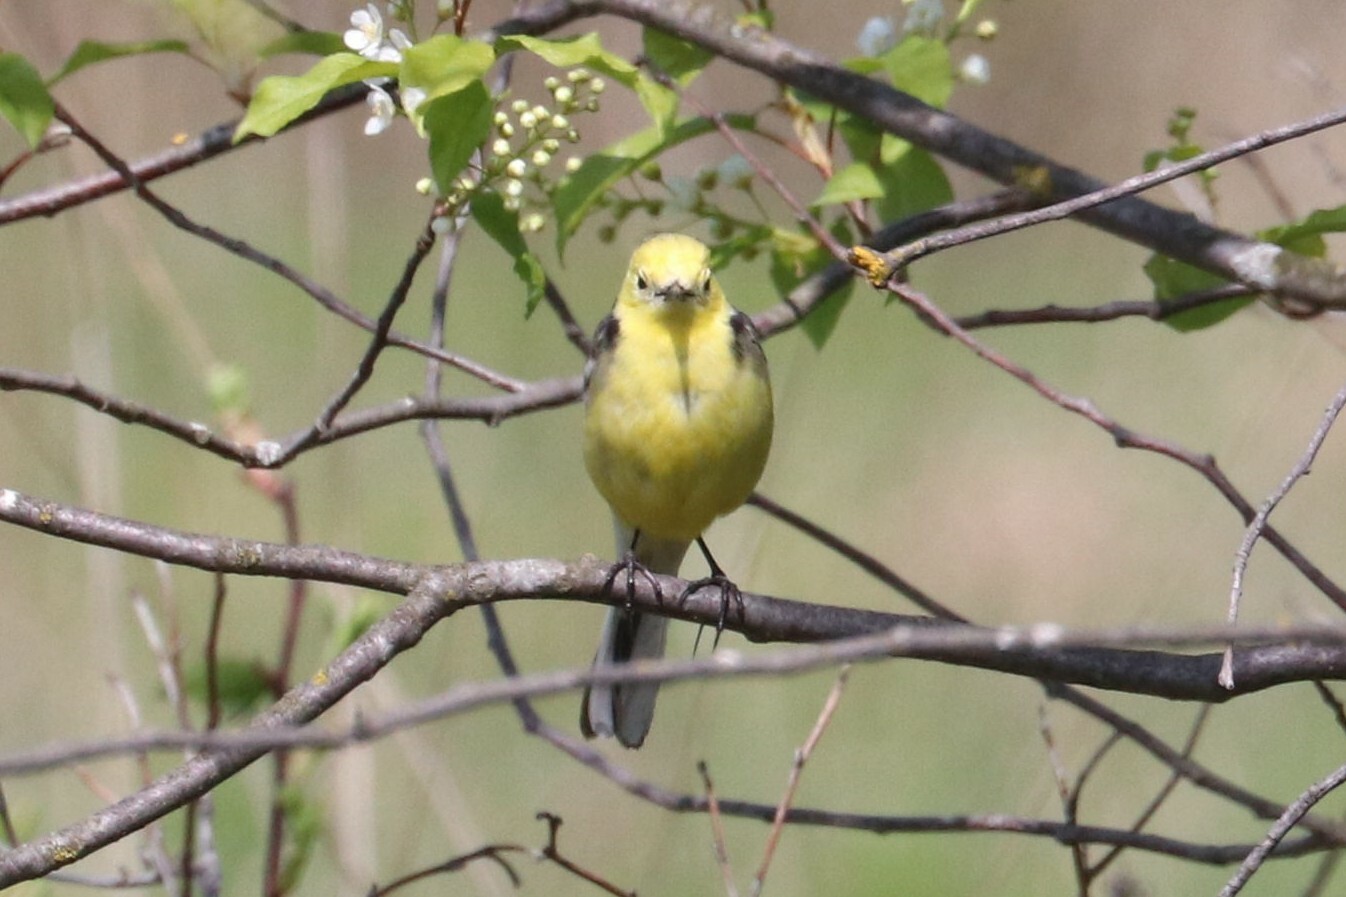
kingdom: Animalia
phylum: Chordata
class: Aves
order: Passeriformes
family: Motacillidae
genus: Motacilla
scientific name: Motacilla citreola
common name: Citrine wagtail
